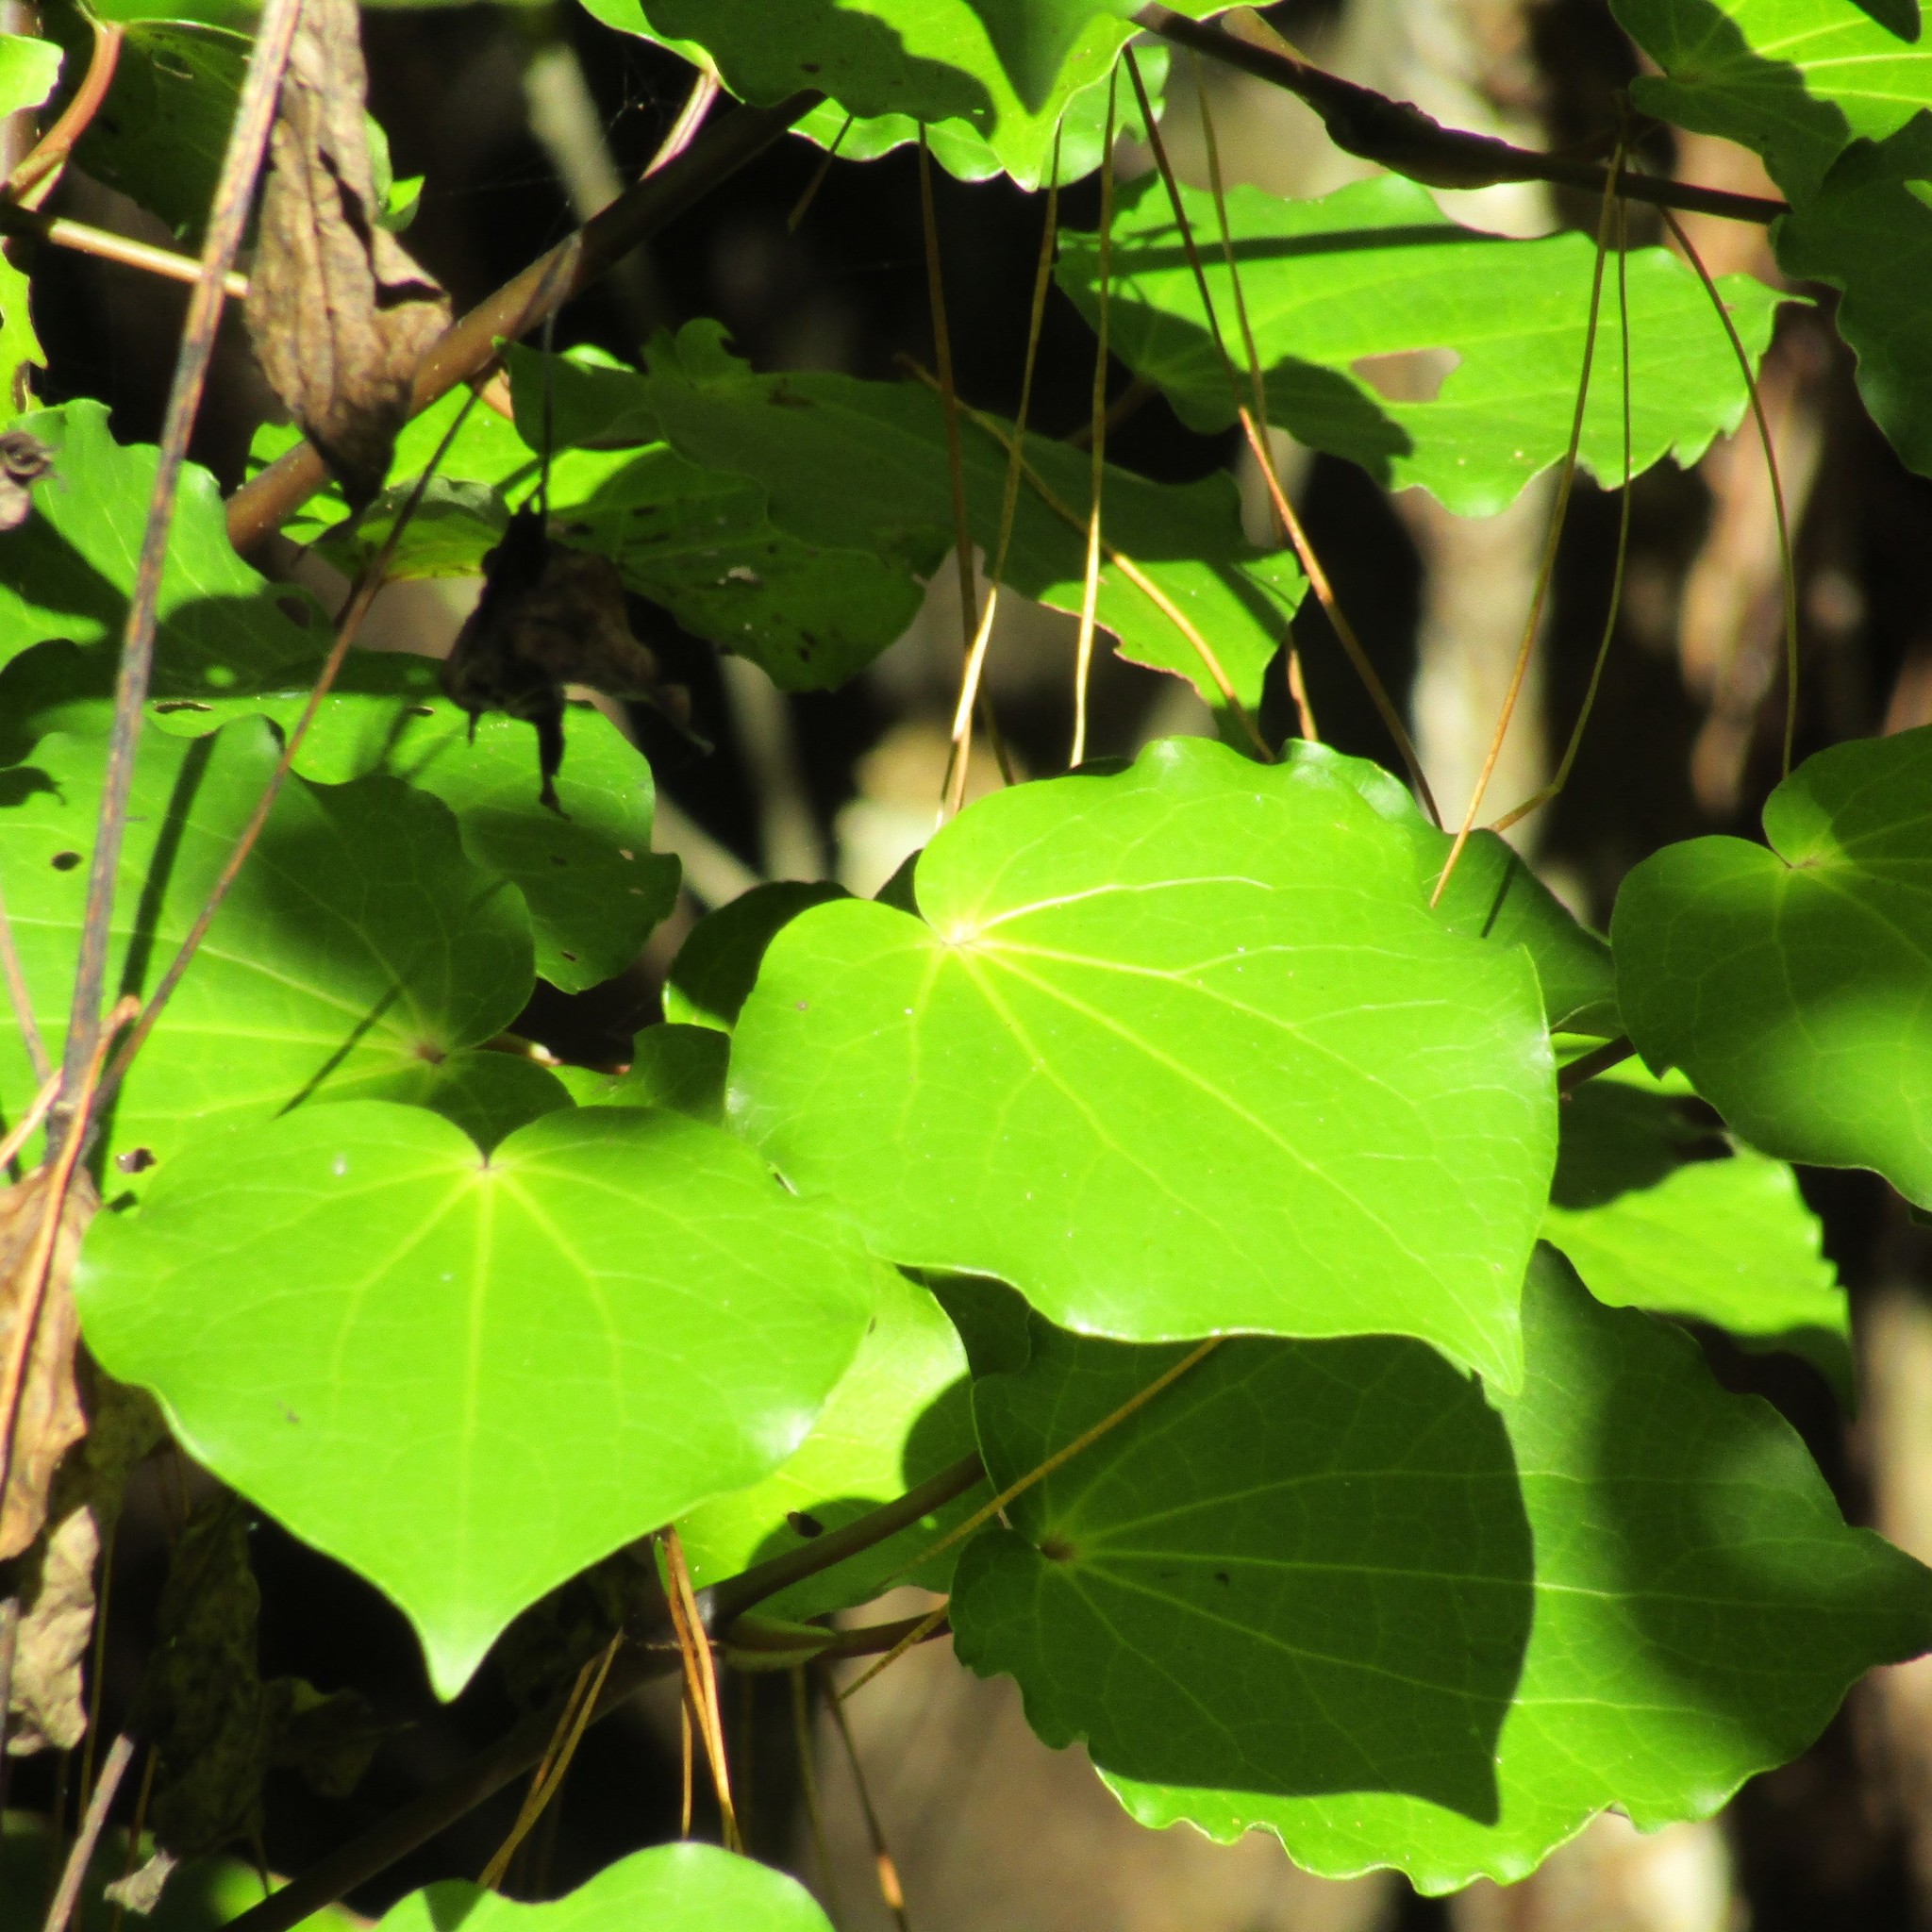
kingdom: Plantae
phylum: Tracheophyta
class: Magnoliopsida
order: Piperales
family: Piperaceae
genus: Macropiper
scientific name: Macropiper excelsum
